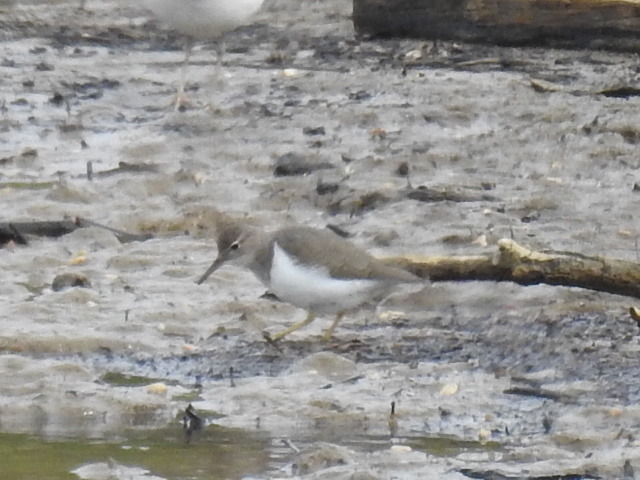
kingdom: Animalia
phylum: Chordata
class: Aves
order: Charadriiformes
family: Scolopacidae
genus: Actitis
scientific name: Actitis macularius
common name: Spotted sandpiper
